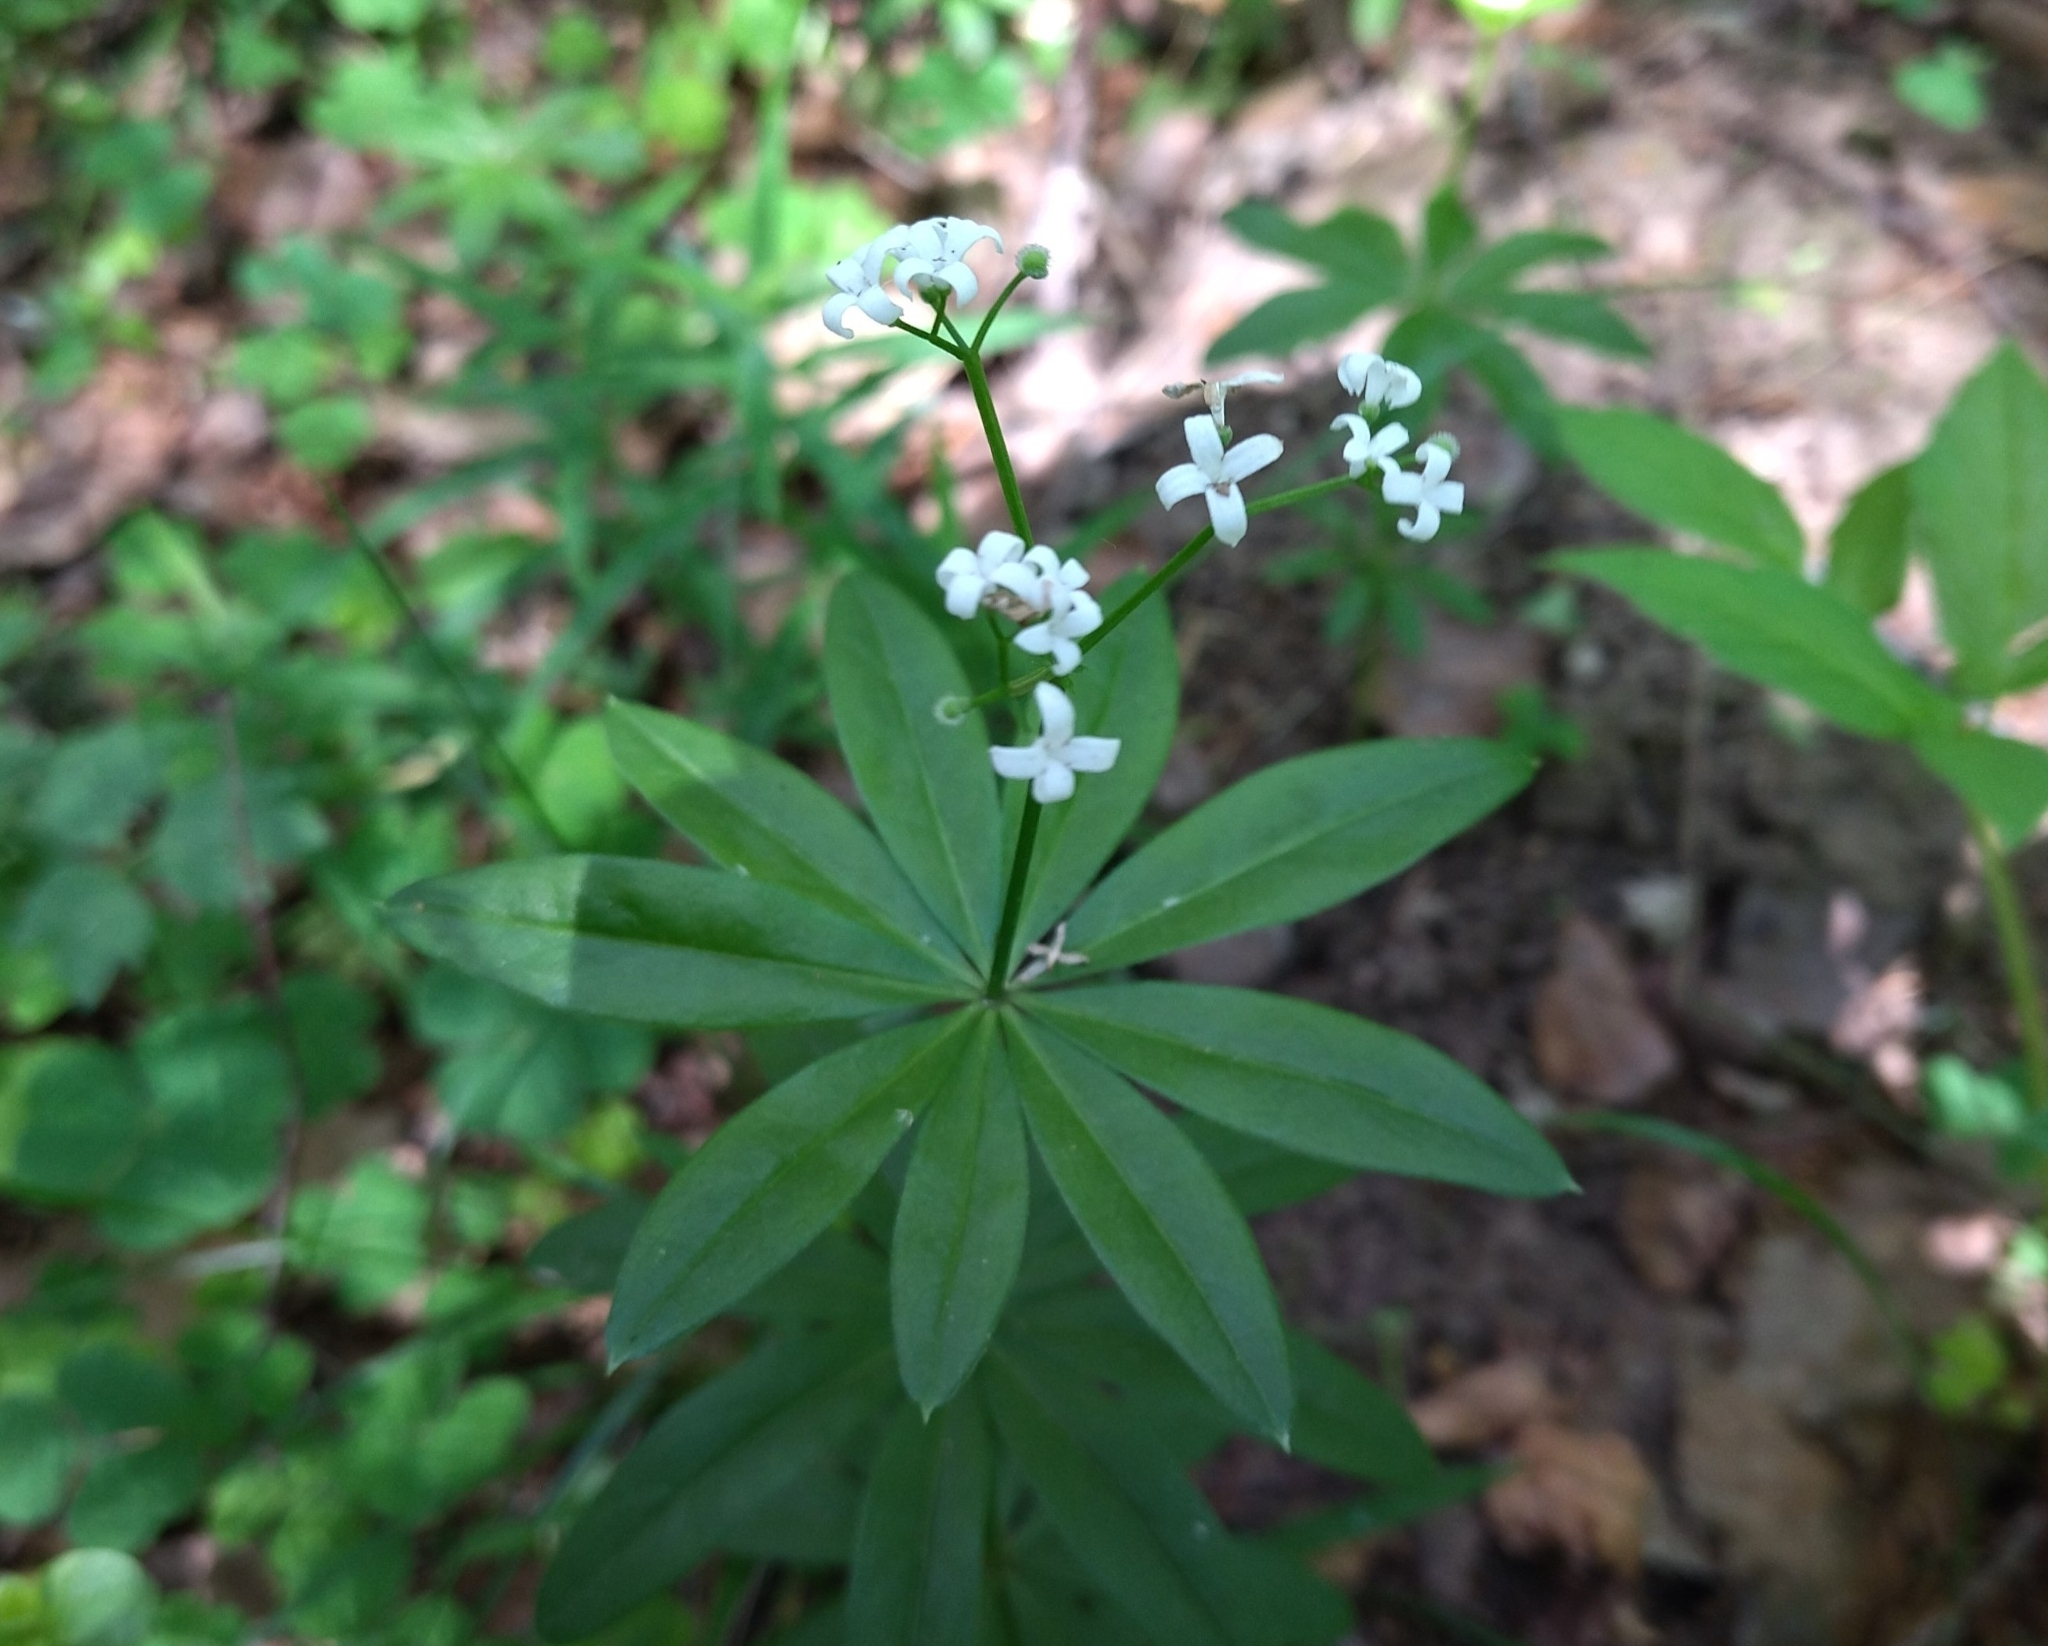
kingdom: Plantae
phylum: Tracheophyta
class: Magnoliopsida
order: Gentianales
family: Rubiaceae
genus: Galium
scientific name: Galium odoratum
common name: Sweet woodruff
